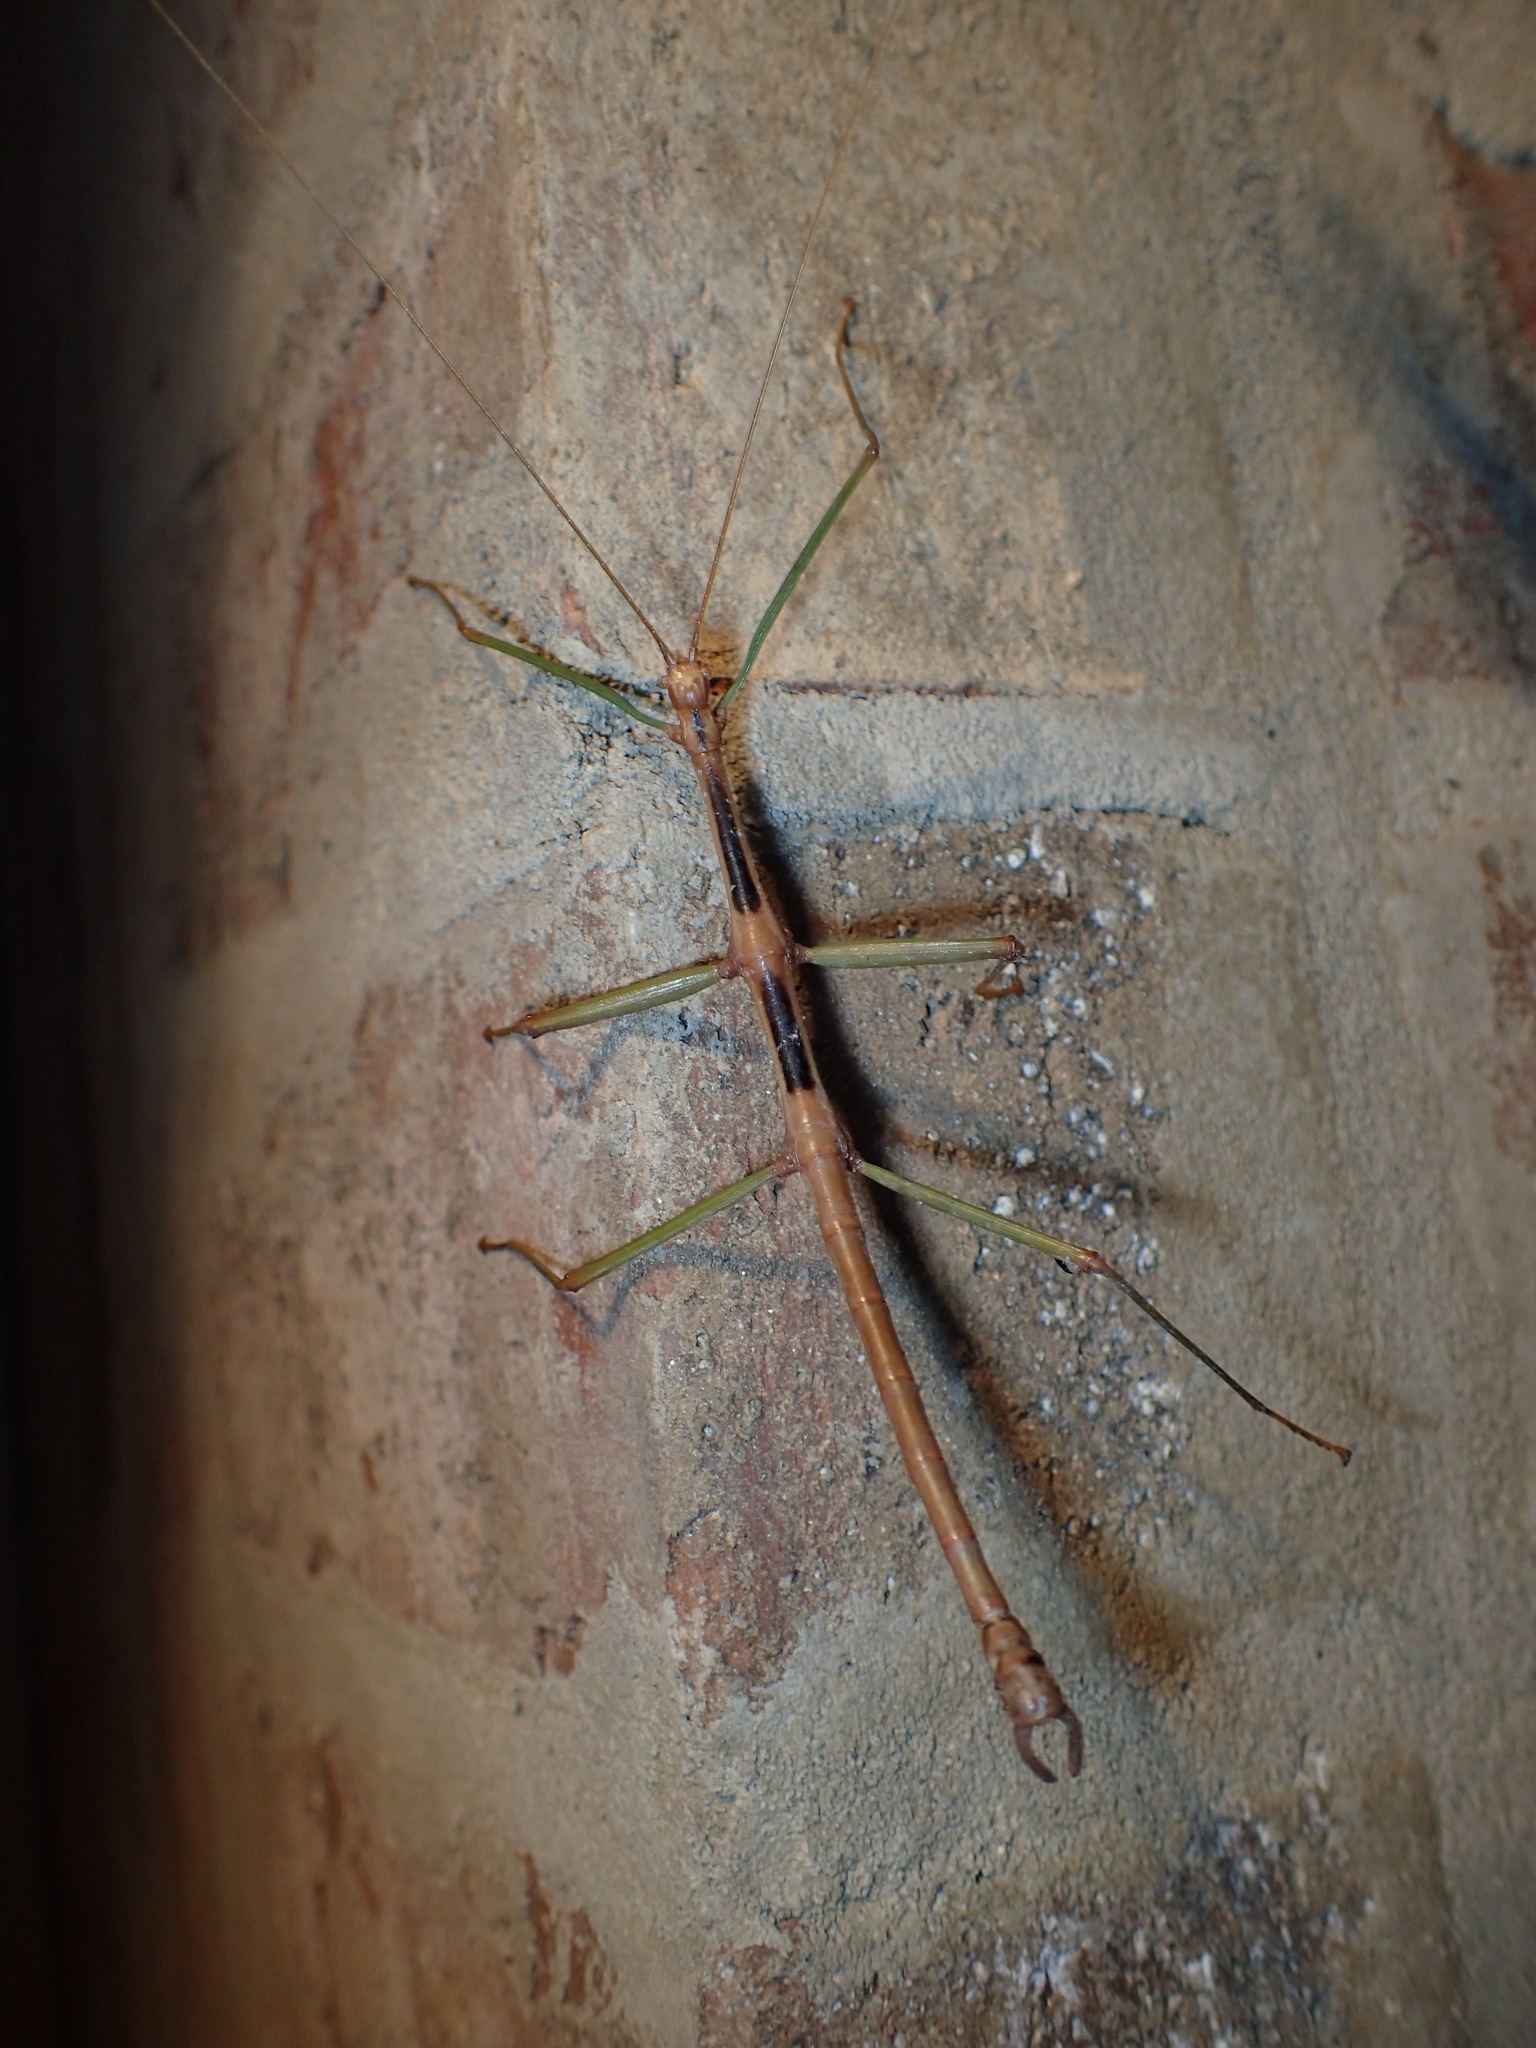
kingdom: Animalia
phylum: Arthropoda
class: Insecta
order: Phasmida
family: Diapheromeridae
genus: Diapheromera
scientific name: Diapheromera carolina
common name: Carolina walkingstick
